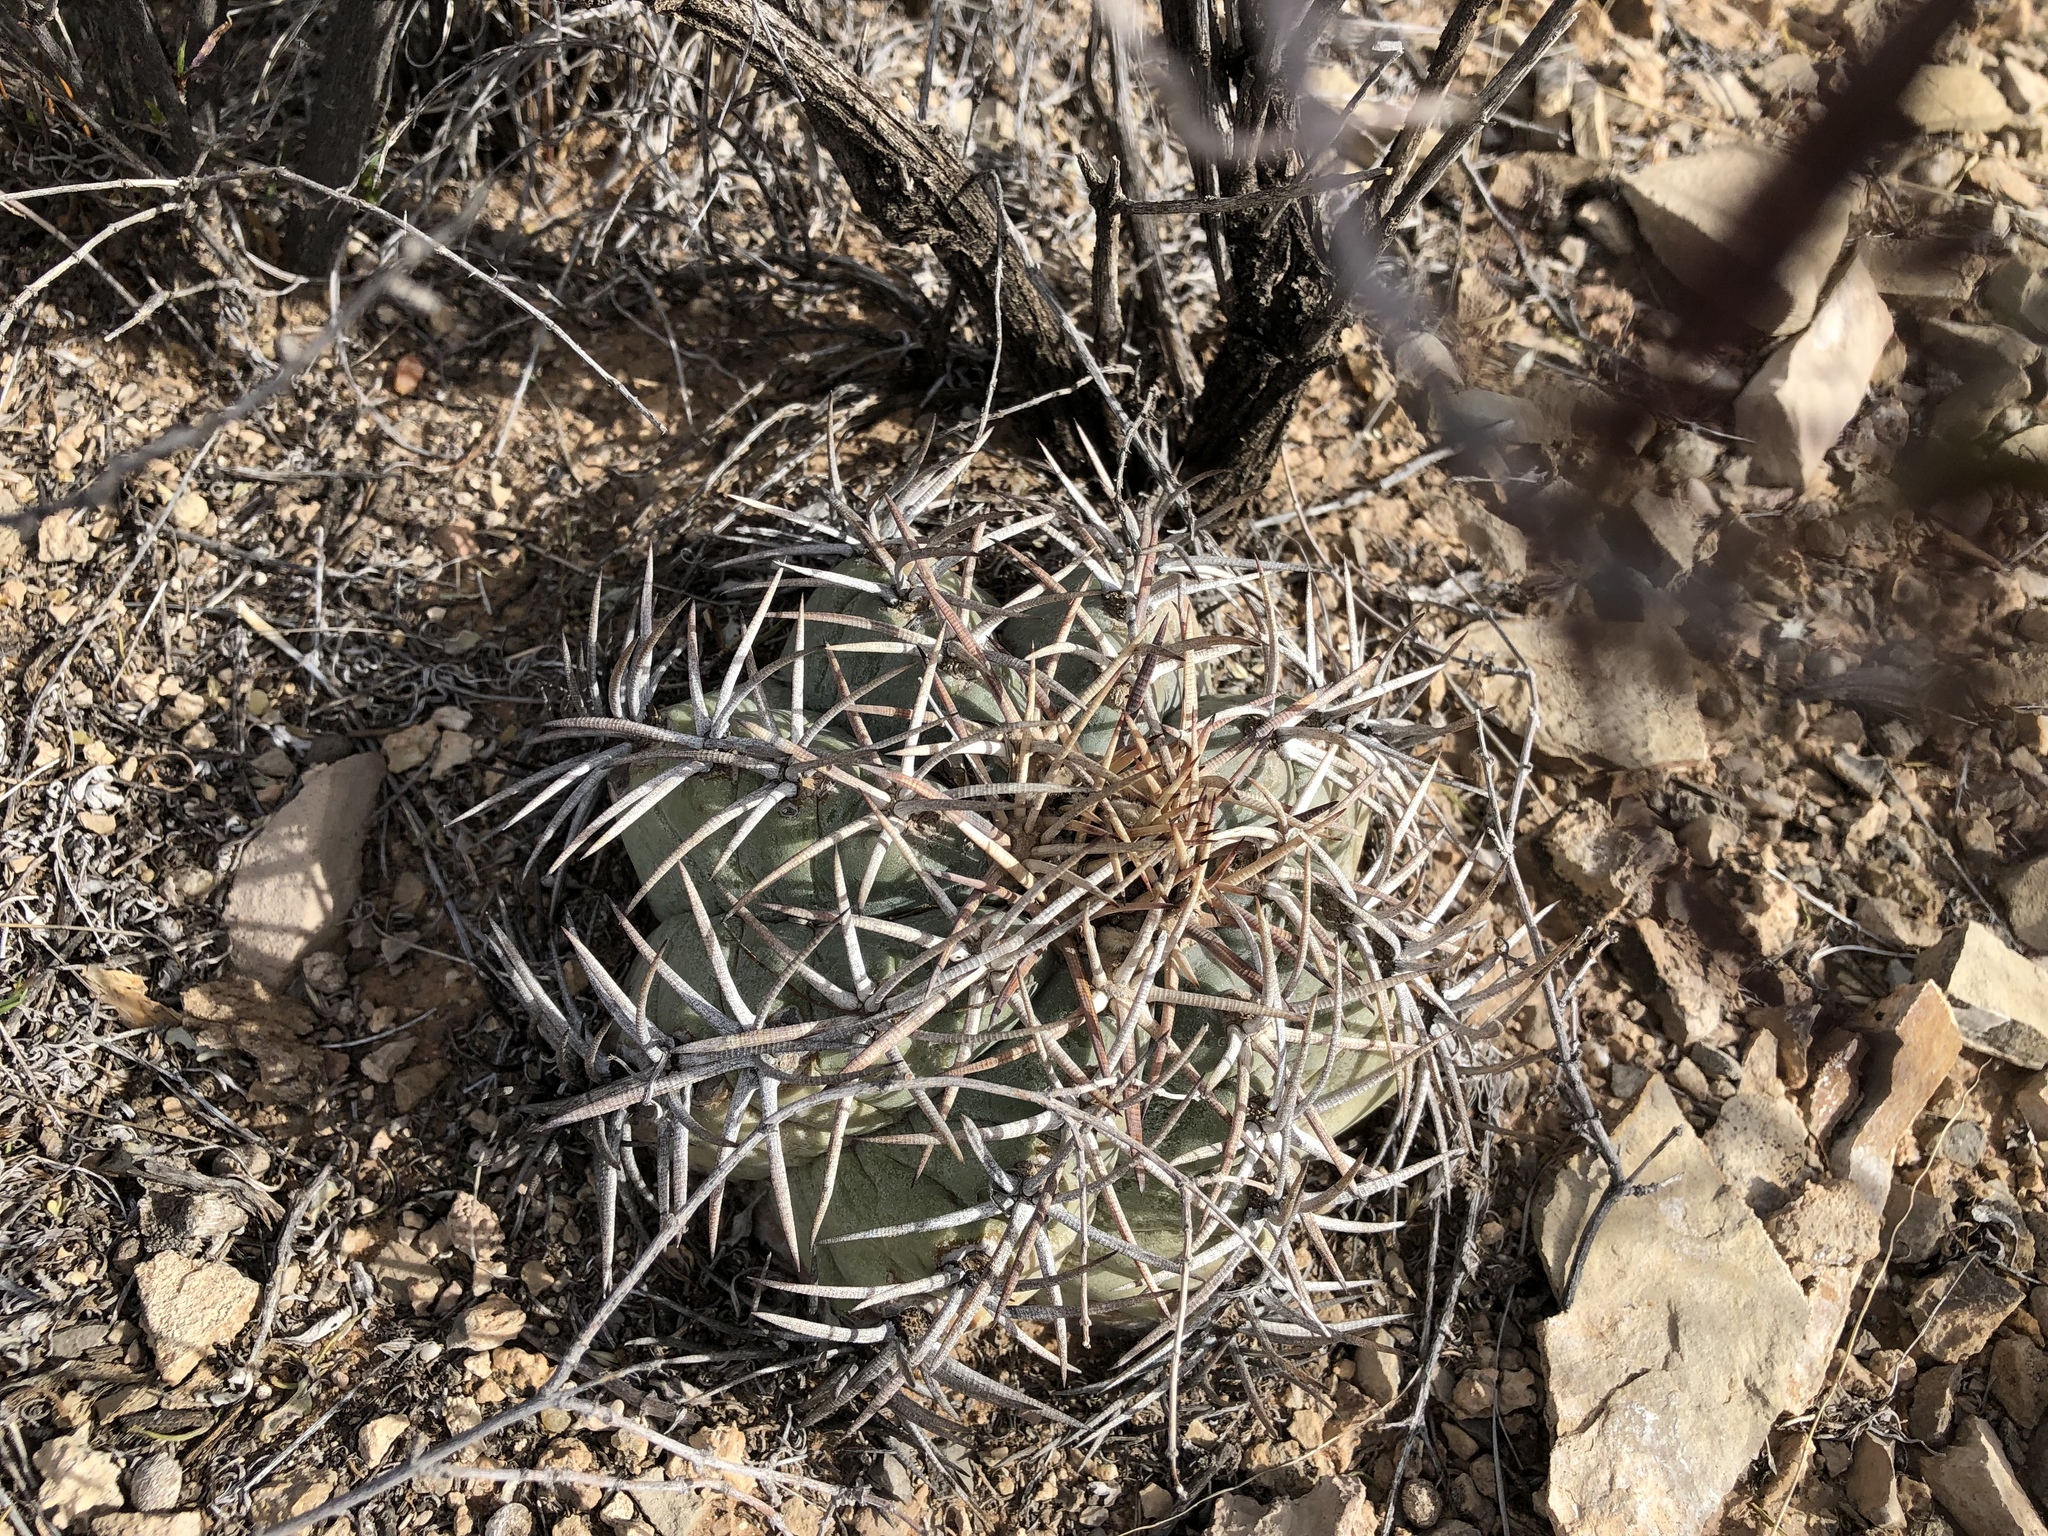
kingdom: Plantae
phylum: Tracheophyta
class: Magnoliopsida
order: Caryophyllales
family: Cactaceae
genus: Echinocactus
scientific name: Echinocactus horizonthalonius
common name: Devilshead
